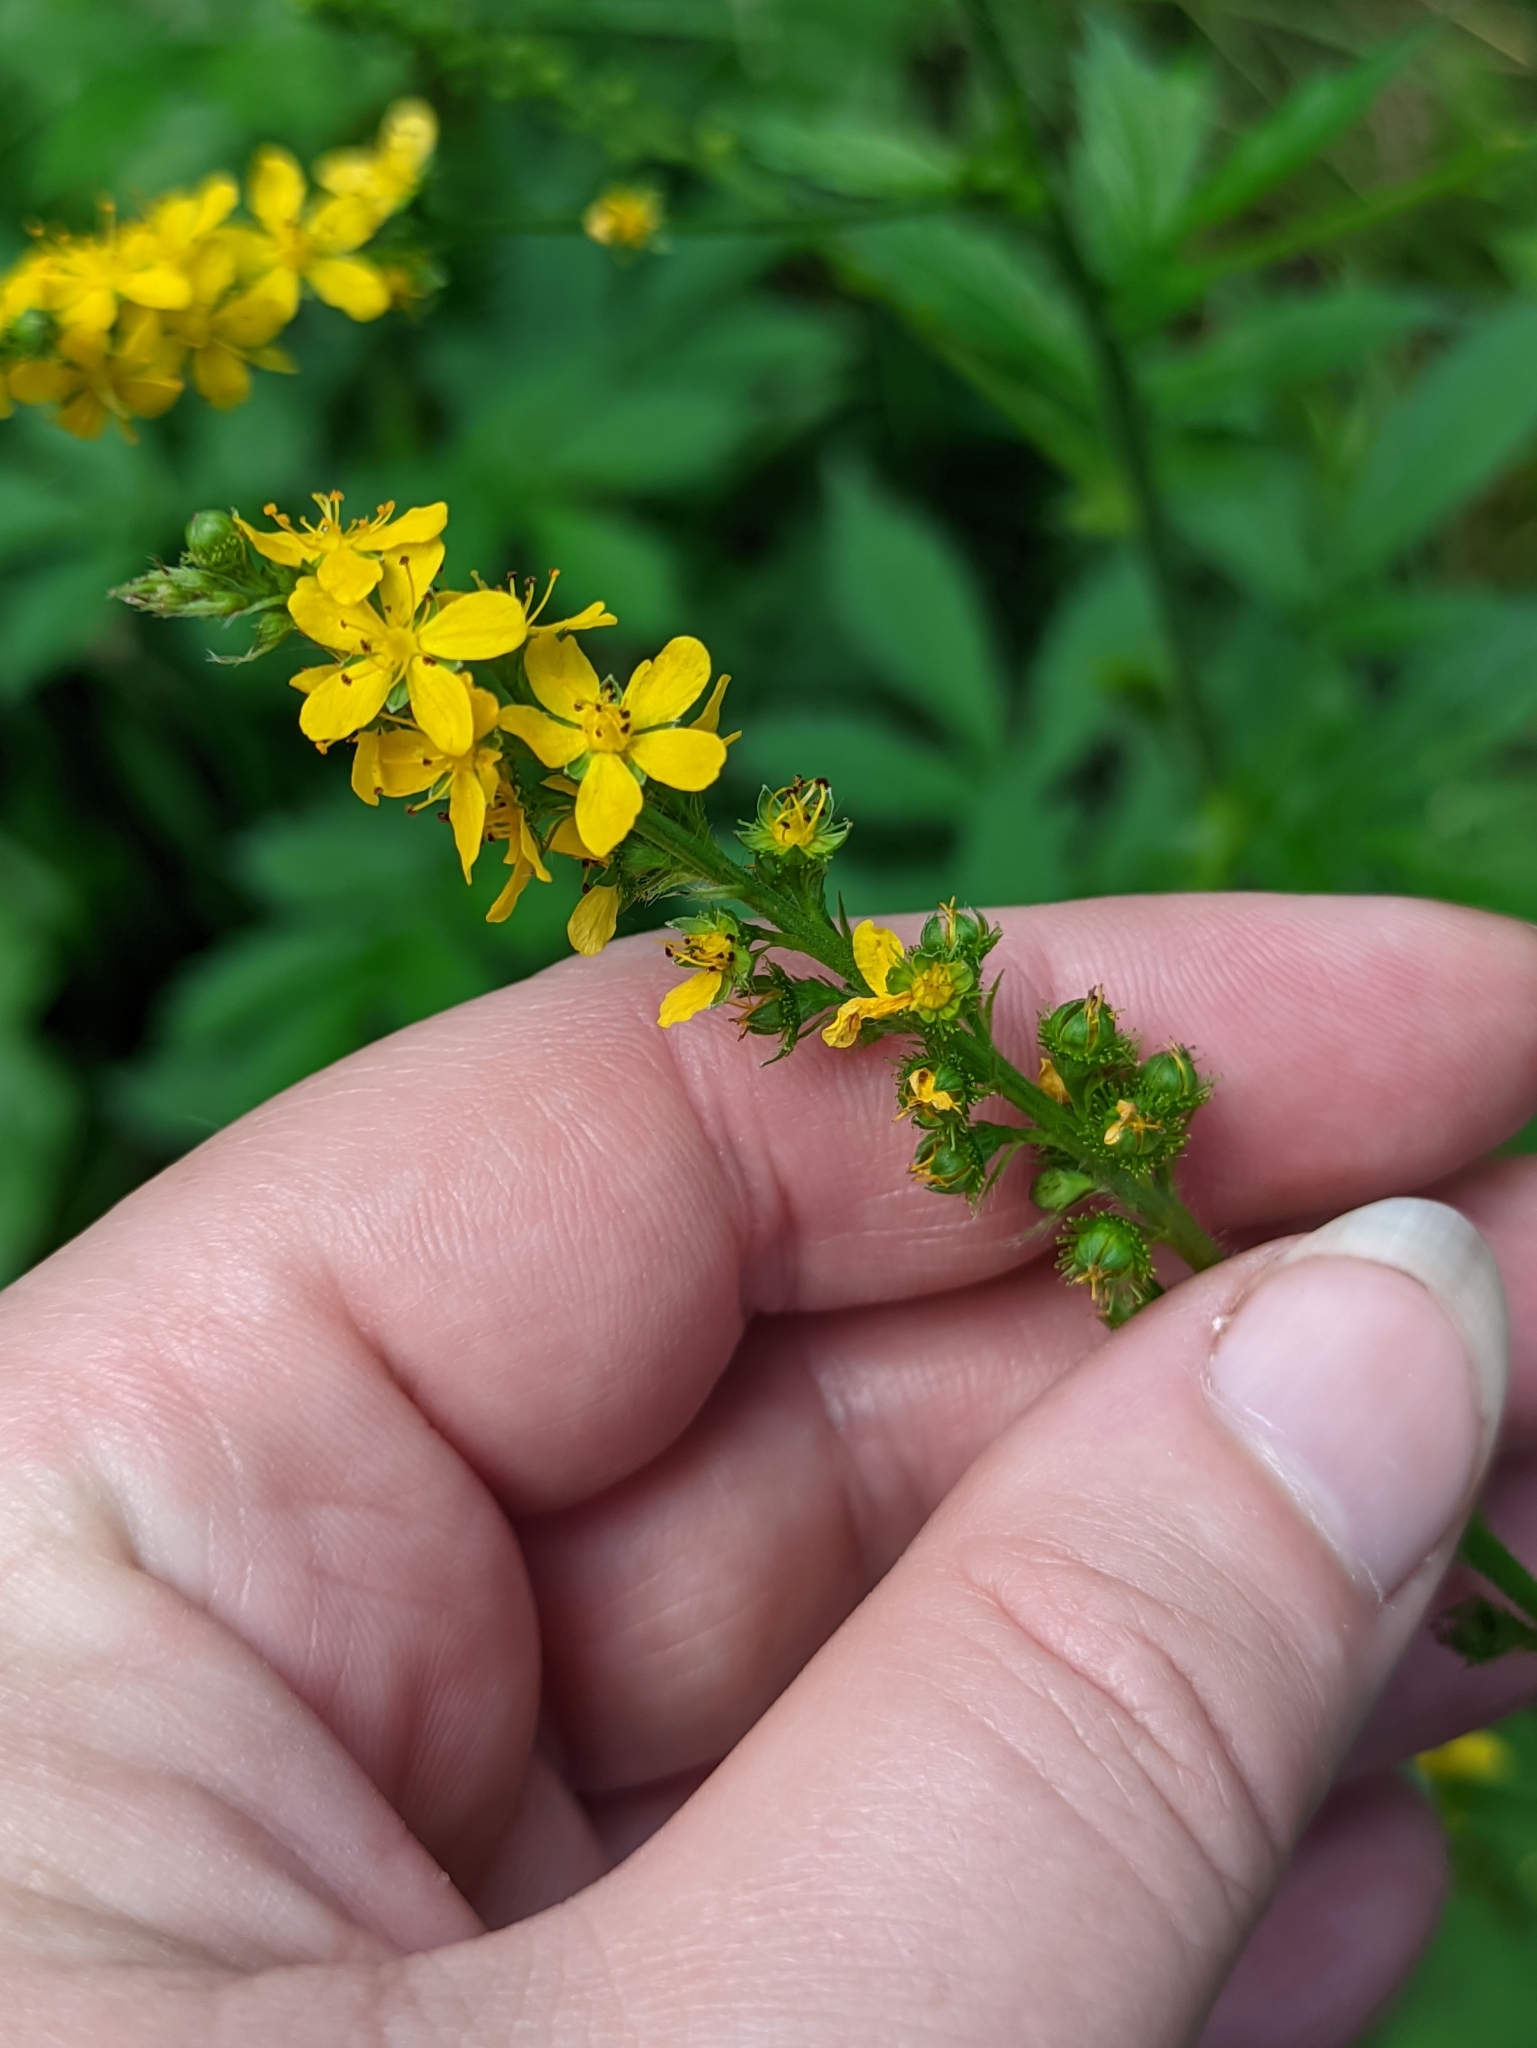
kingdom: Plantae
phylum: Tracheophyta
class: Magnoliopsida
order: Rosales
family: Rosaceae
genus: Agrimonia
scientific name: Agrimonia pilosa
